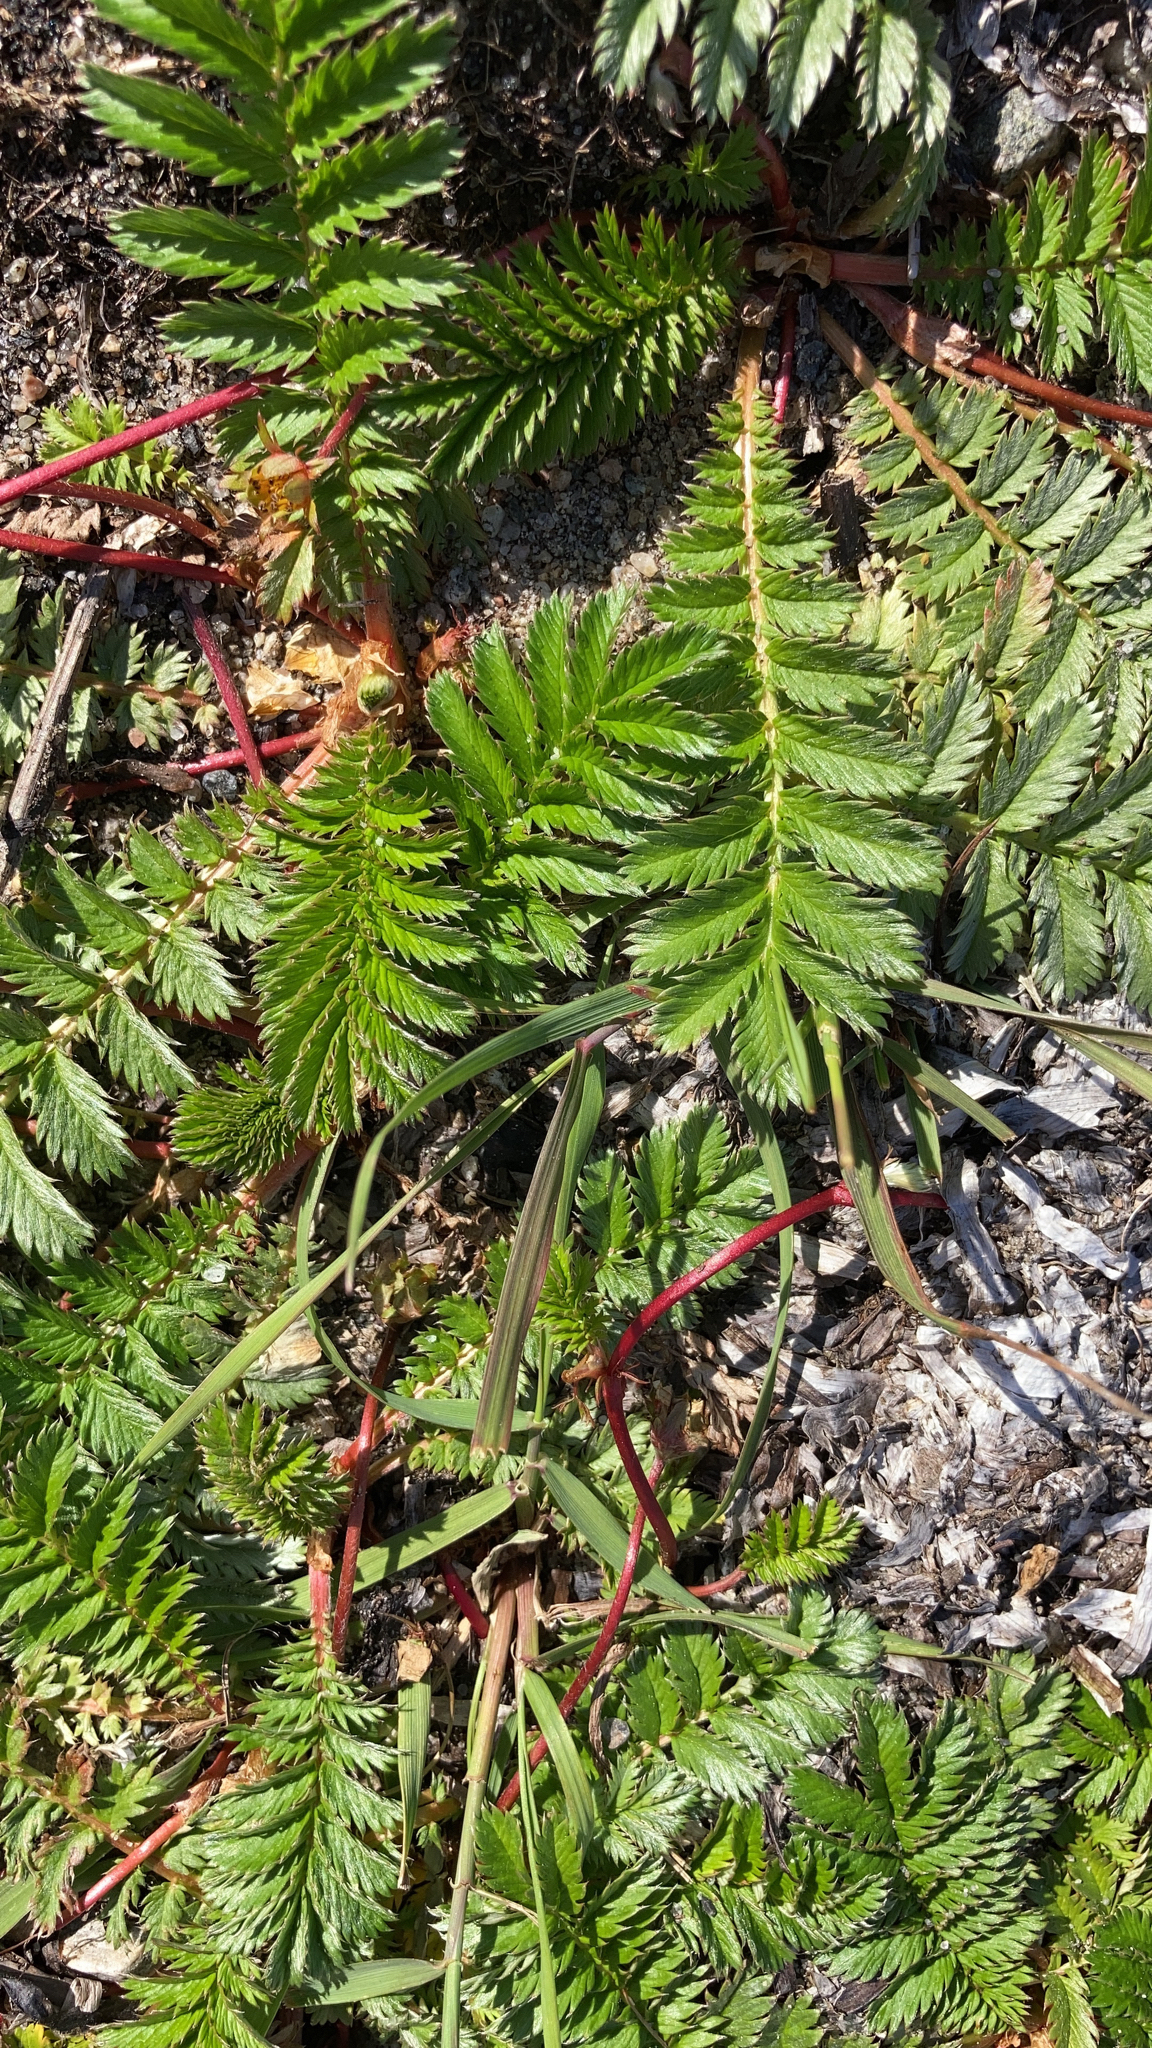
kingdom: Plantae
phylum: Tracheophyta
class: Magnoliopsida
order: Rosales
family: Rosaceae
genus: Argentina
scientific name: Argentina anserina
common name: Common silverweed
